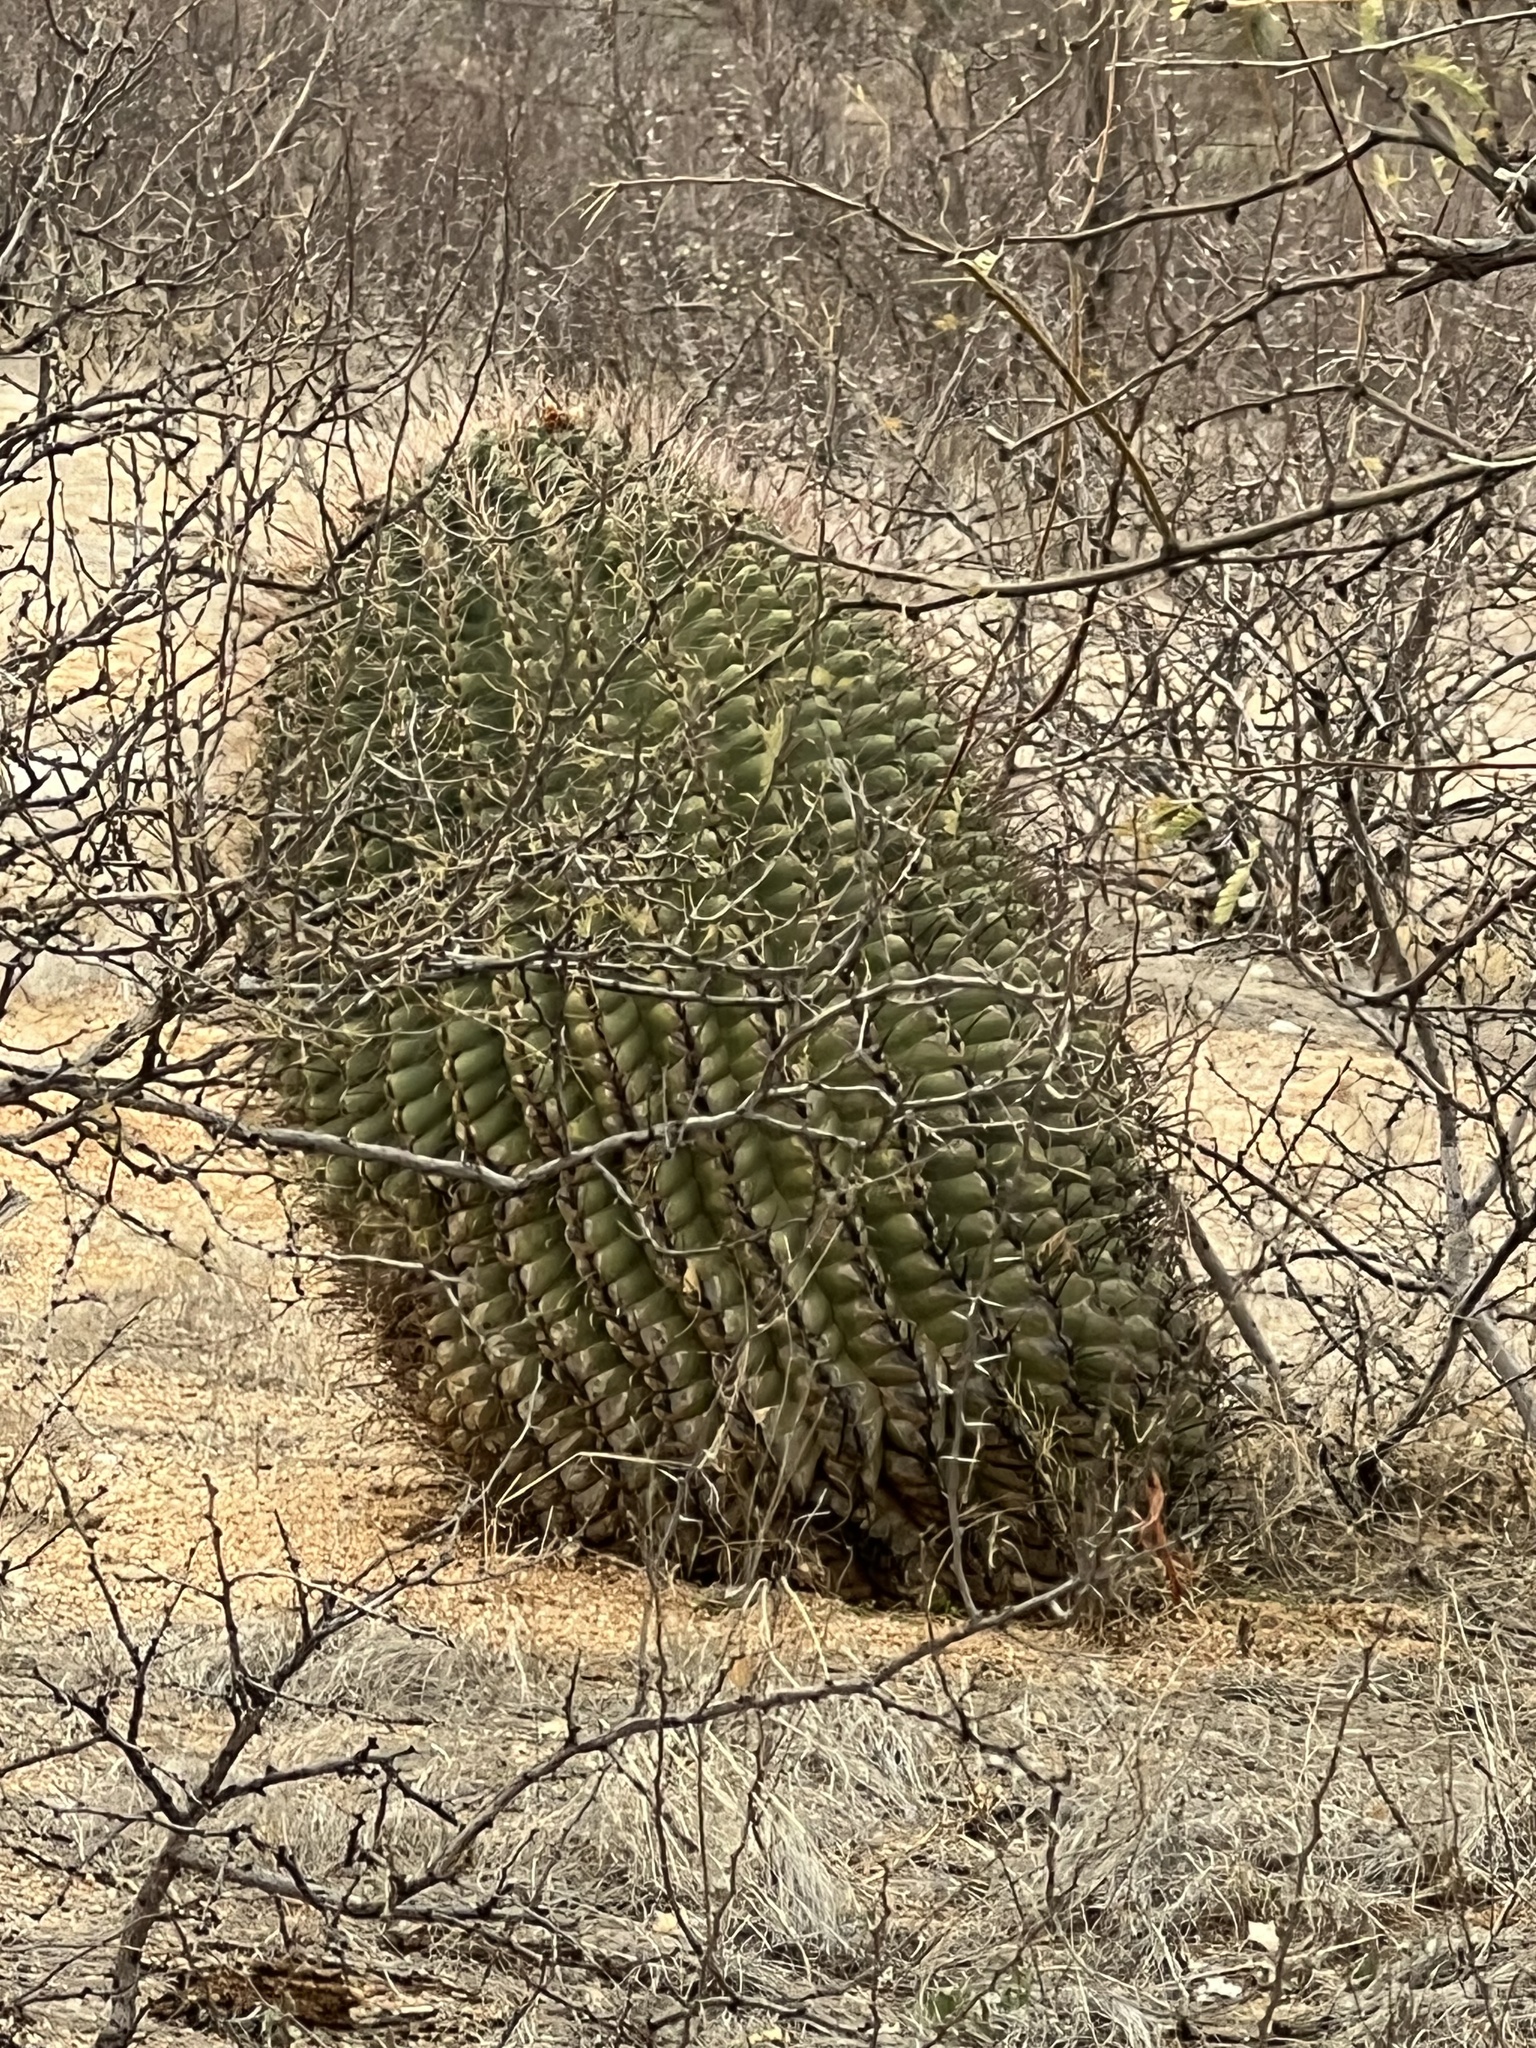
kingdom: Plantae
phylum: Tracheophyta
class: Magnoliopsida
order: Caryophyllales
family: Cactaceae
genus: Ferocactus
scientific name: Ferocactus wislizeni
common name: Candy barrel cactus
